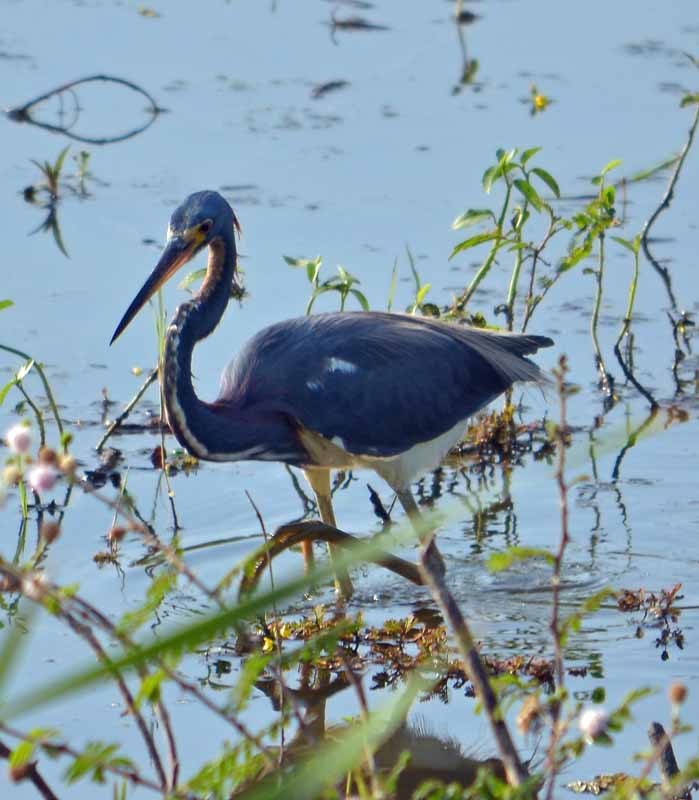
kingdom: Animalia
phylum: Chordata
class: Aves
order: Pelecaniformes
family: Ardeidae
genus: Egretta
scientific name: Egretta tricolor
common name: Tricolored heron
